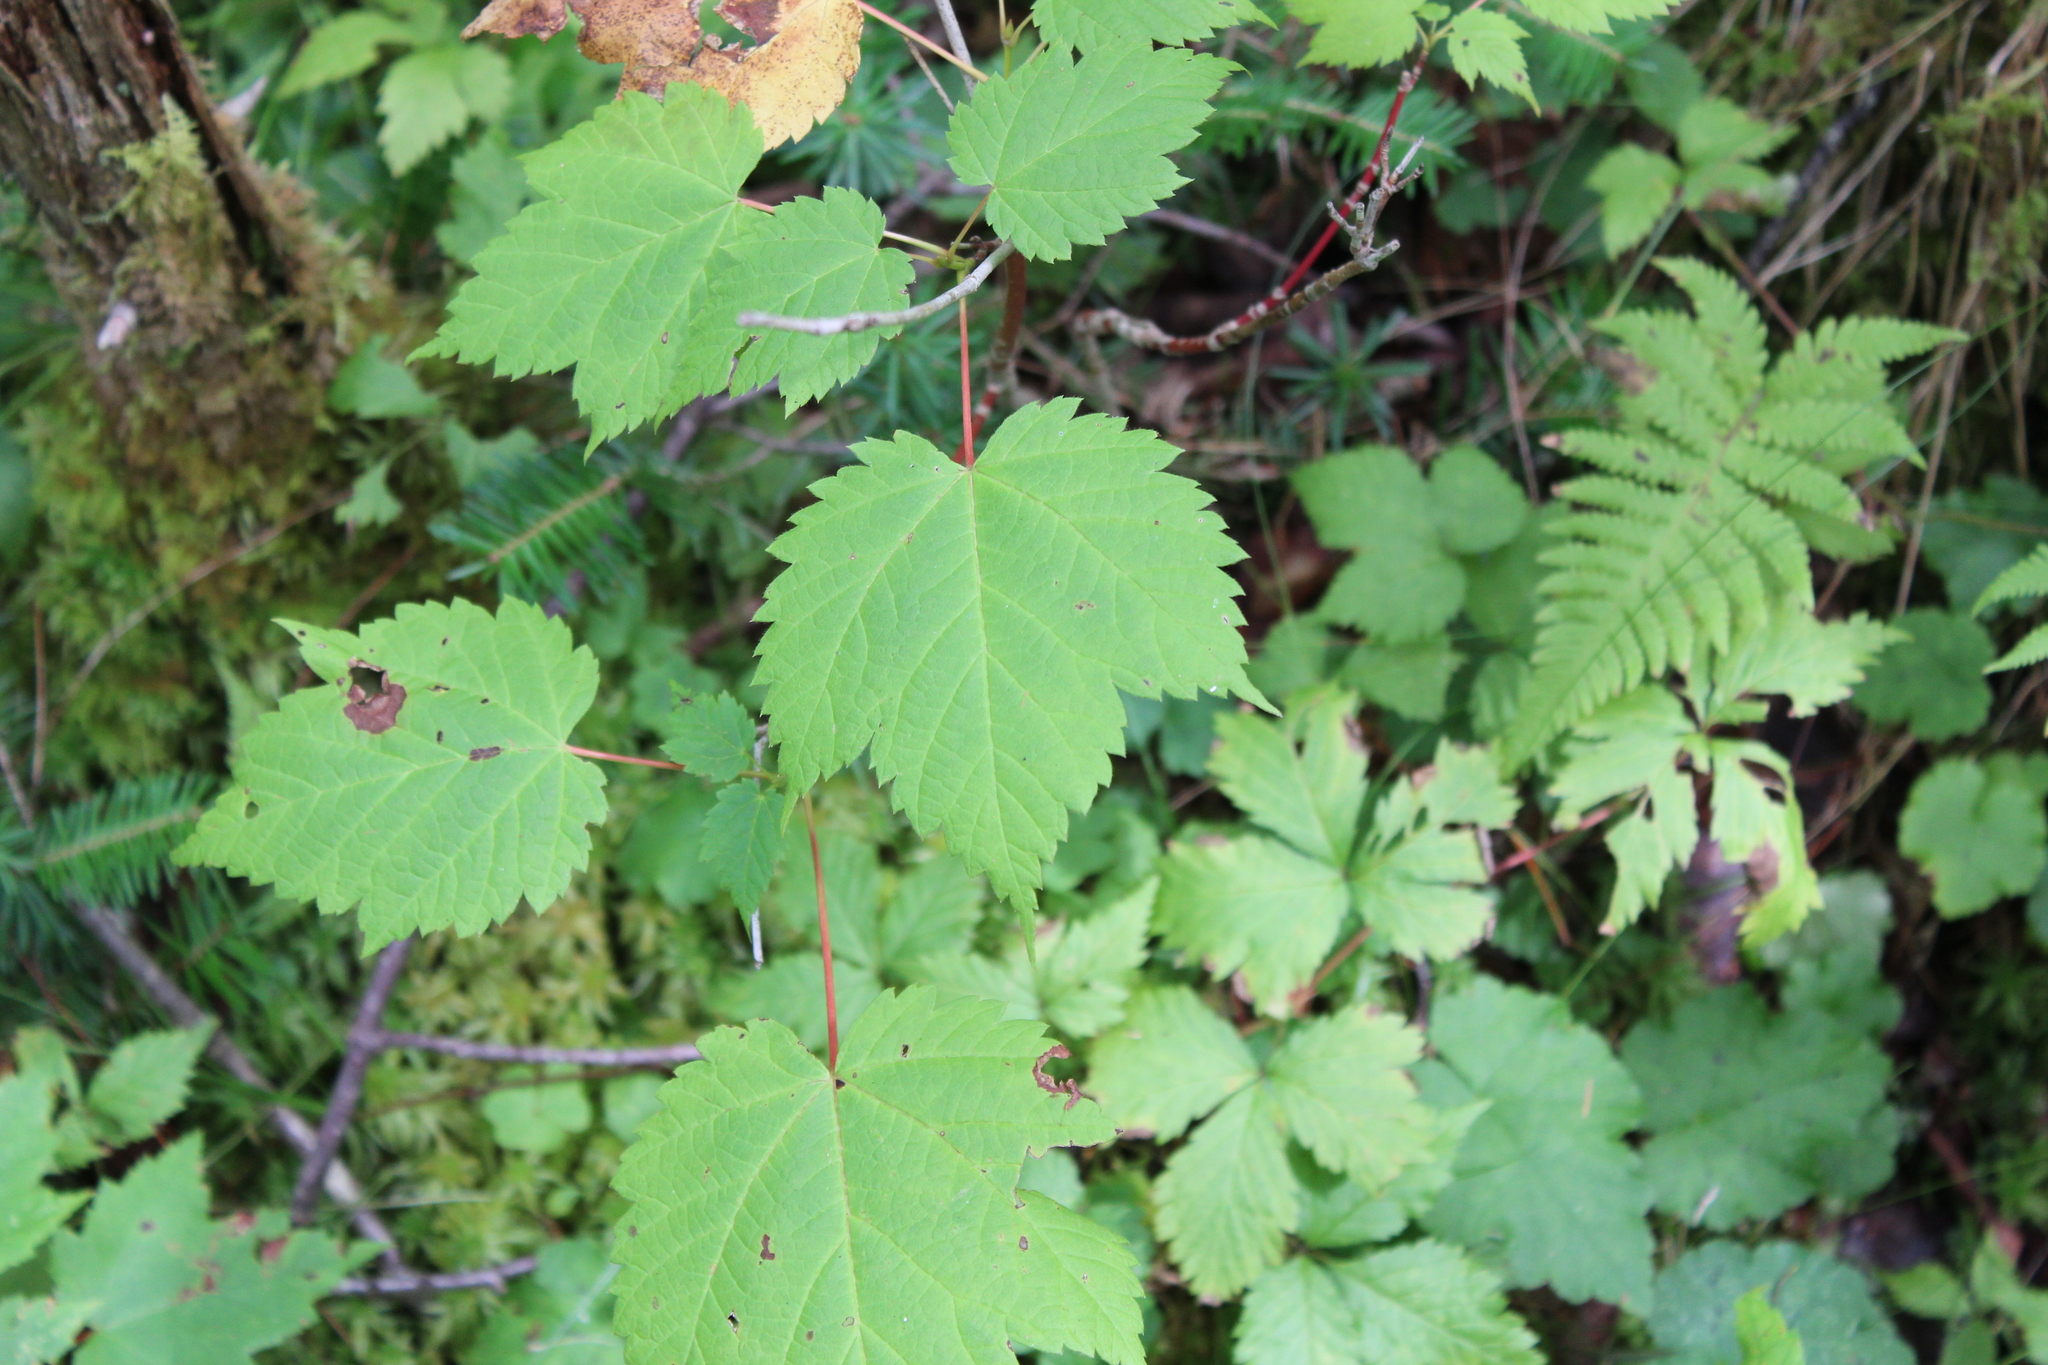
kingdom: Plantae
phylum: Tracheophyta
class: Magnoliopsida
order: Sapindales
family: Sapindaceae
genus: Acer
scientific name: Acer spicatum
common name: Mountain maple
